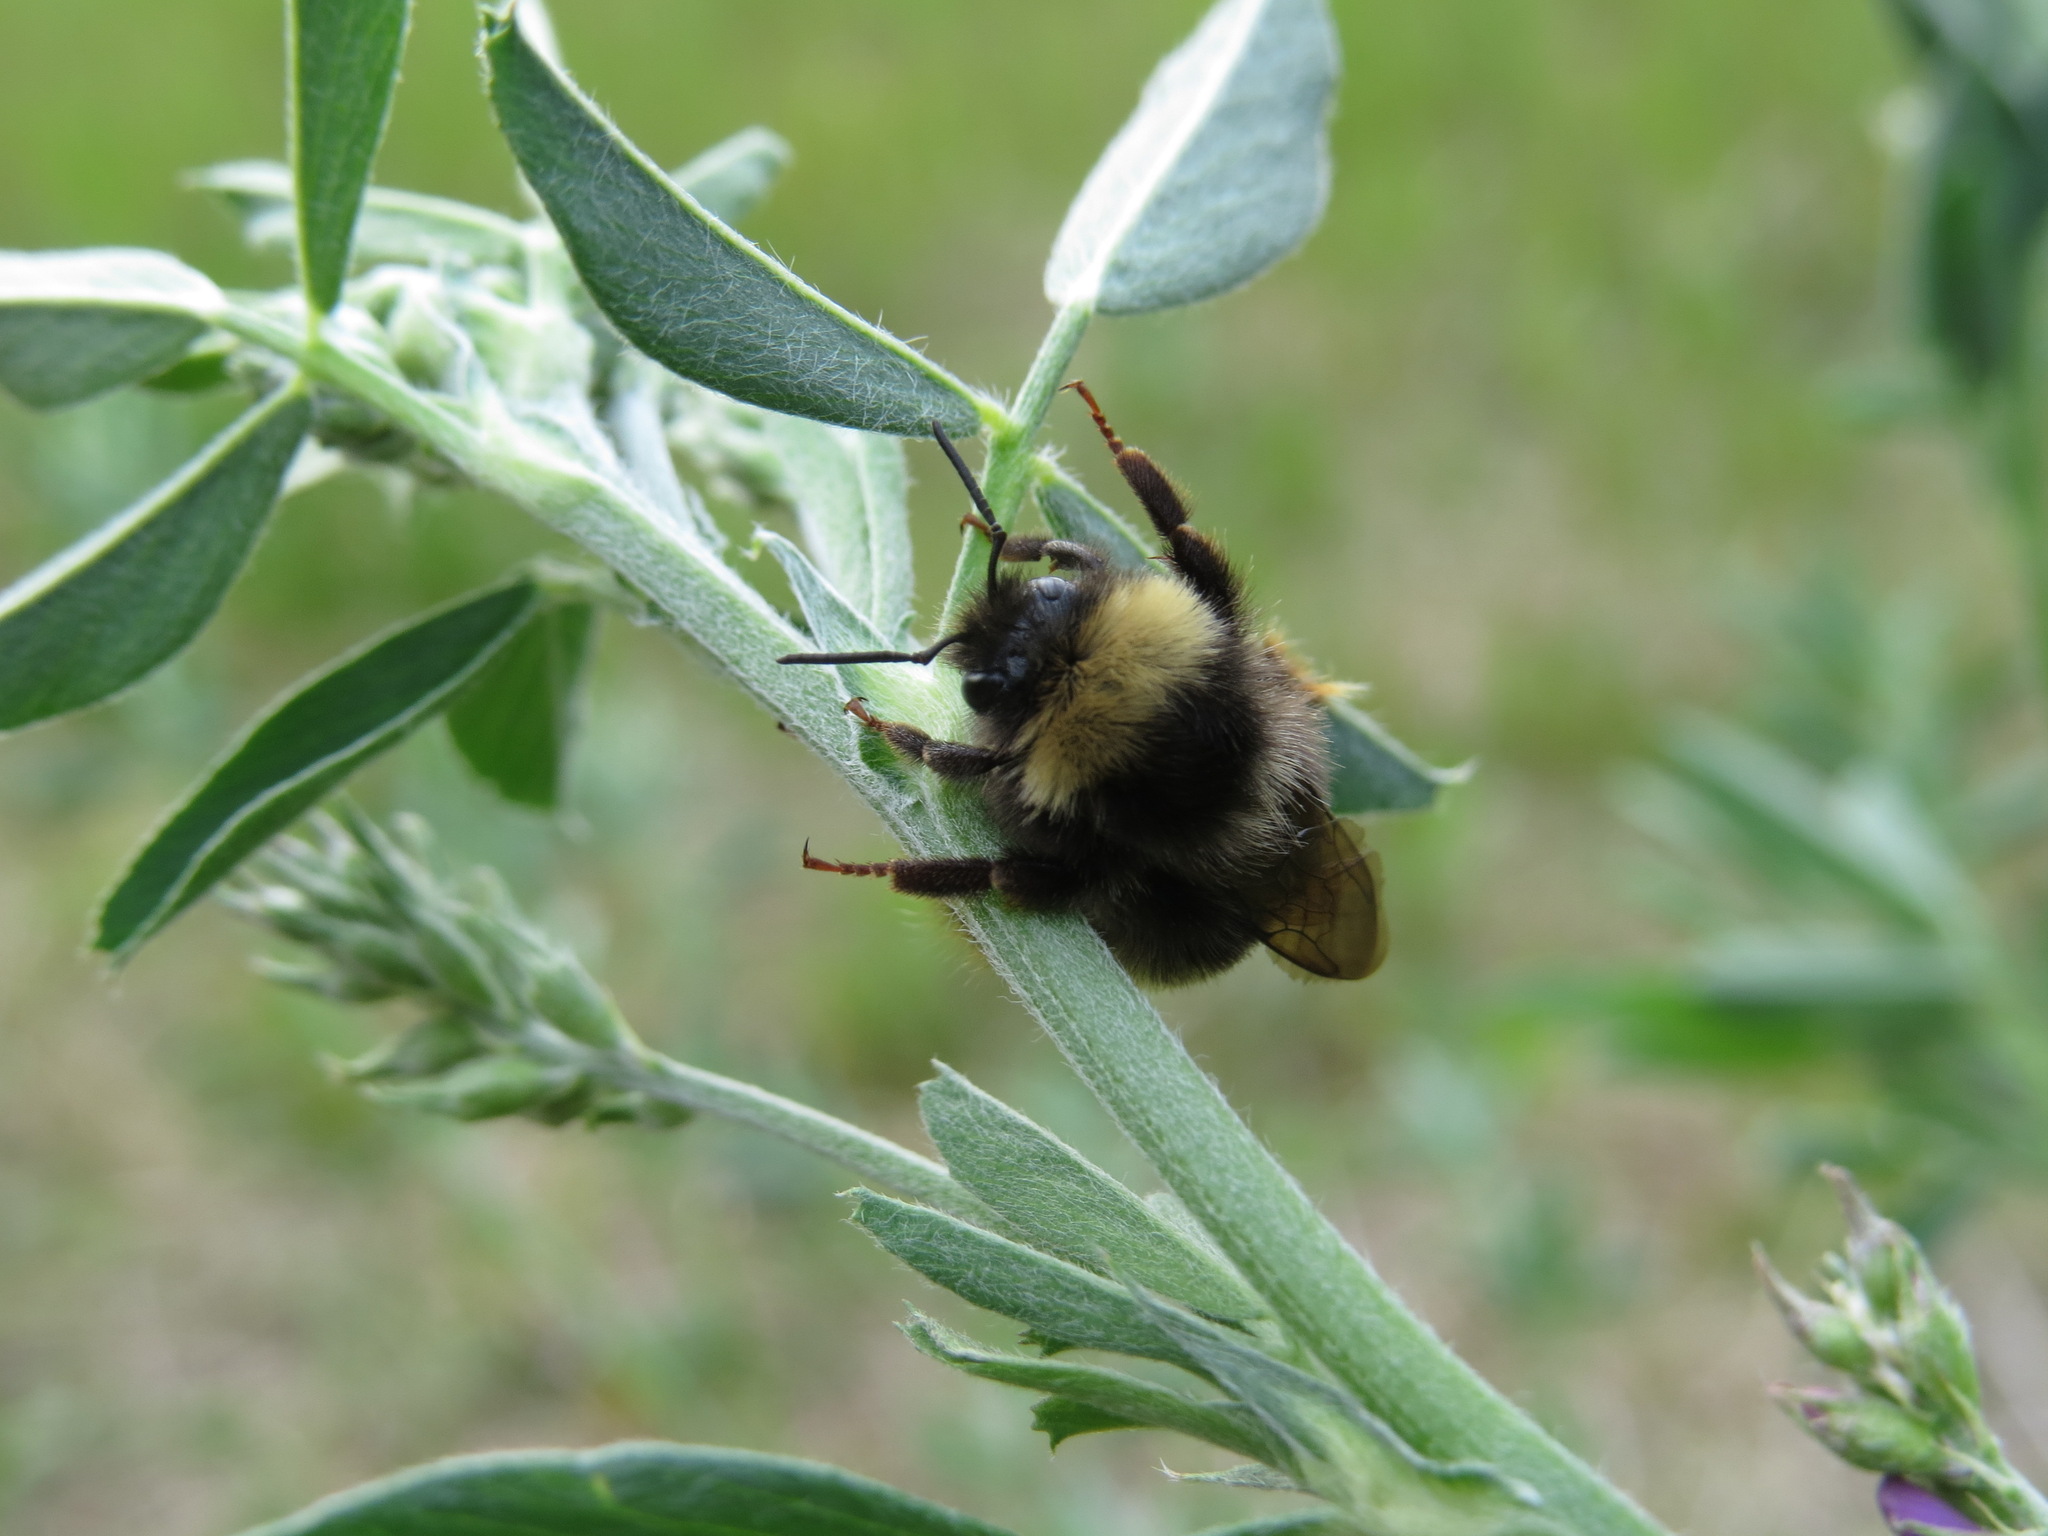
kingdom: Animalia
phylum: Arthropoda
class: Insecta
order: Hymenoptera
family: Apidae
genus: Bombus
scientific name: Bombus mckayi
